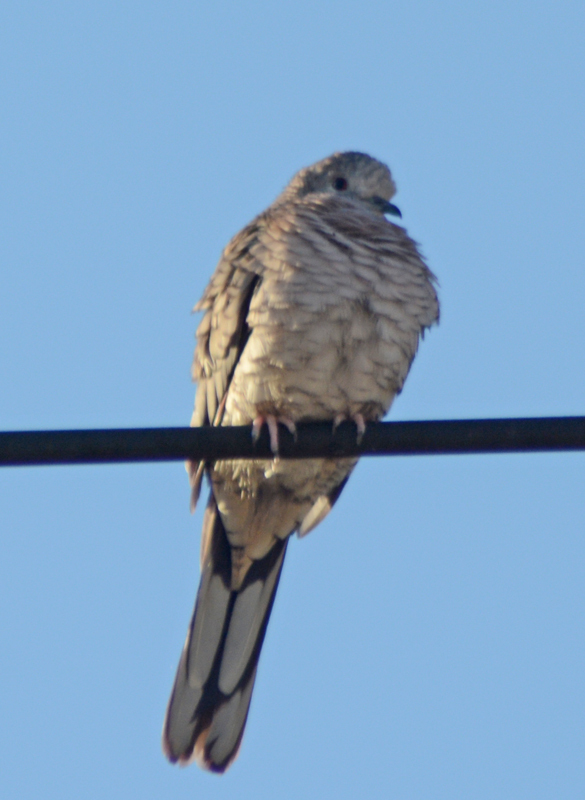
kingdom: Animalia
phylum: Chordata
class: Aves
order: Columbiformes
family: Columbidae
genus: Columbina
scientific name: Columbina inca
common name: Inca dove
